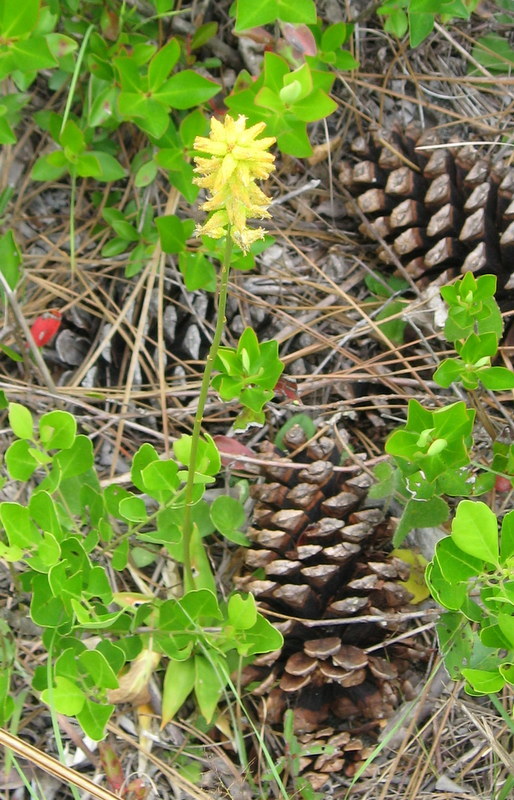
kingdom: Plantae
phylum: Tracheophyta
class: Liliopsida
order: Dioscoreales
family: Nartheciaceae
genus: Aletris
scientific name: Aletris lutea
